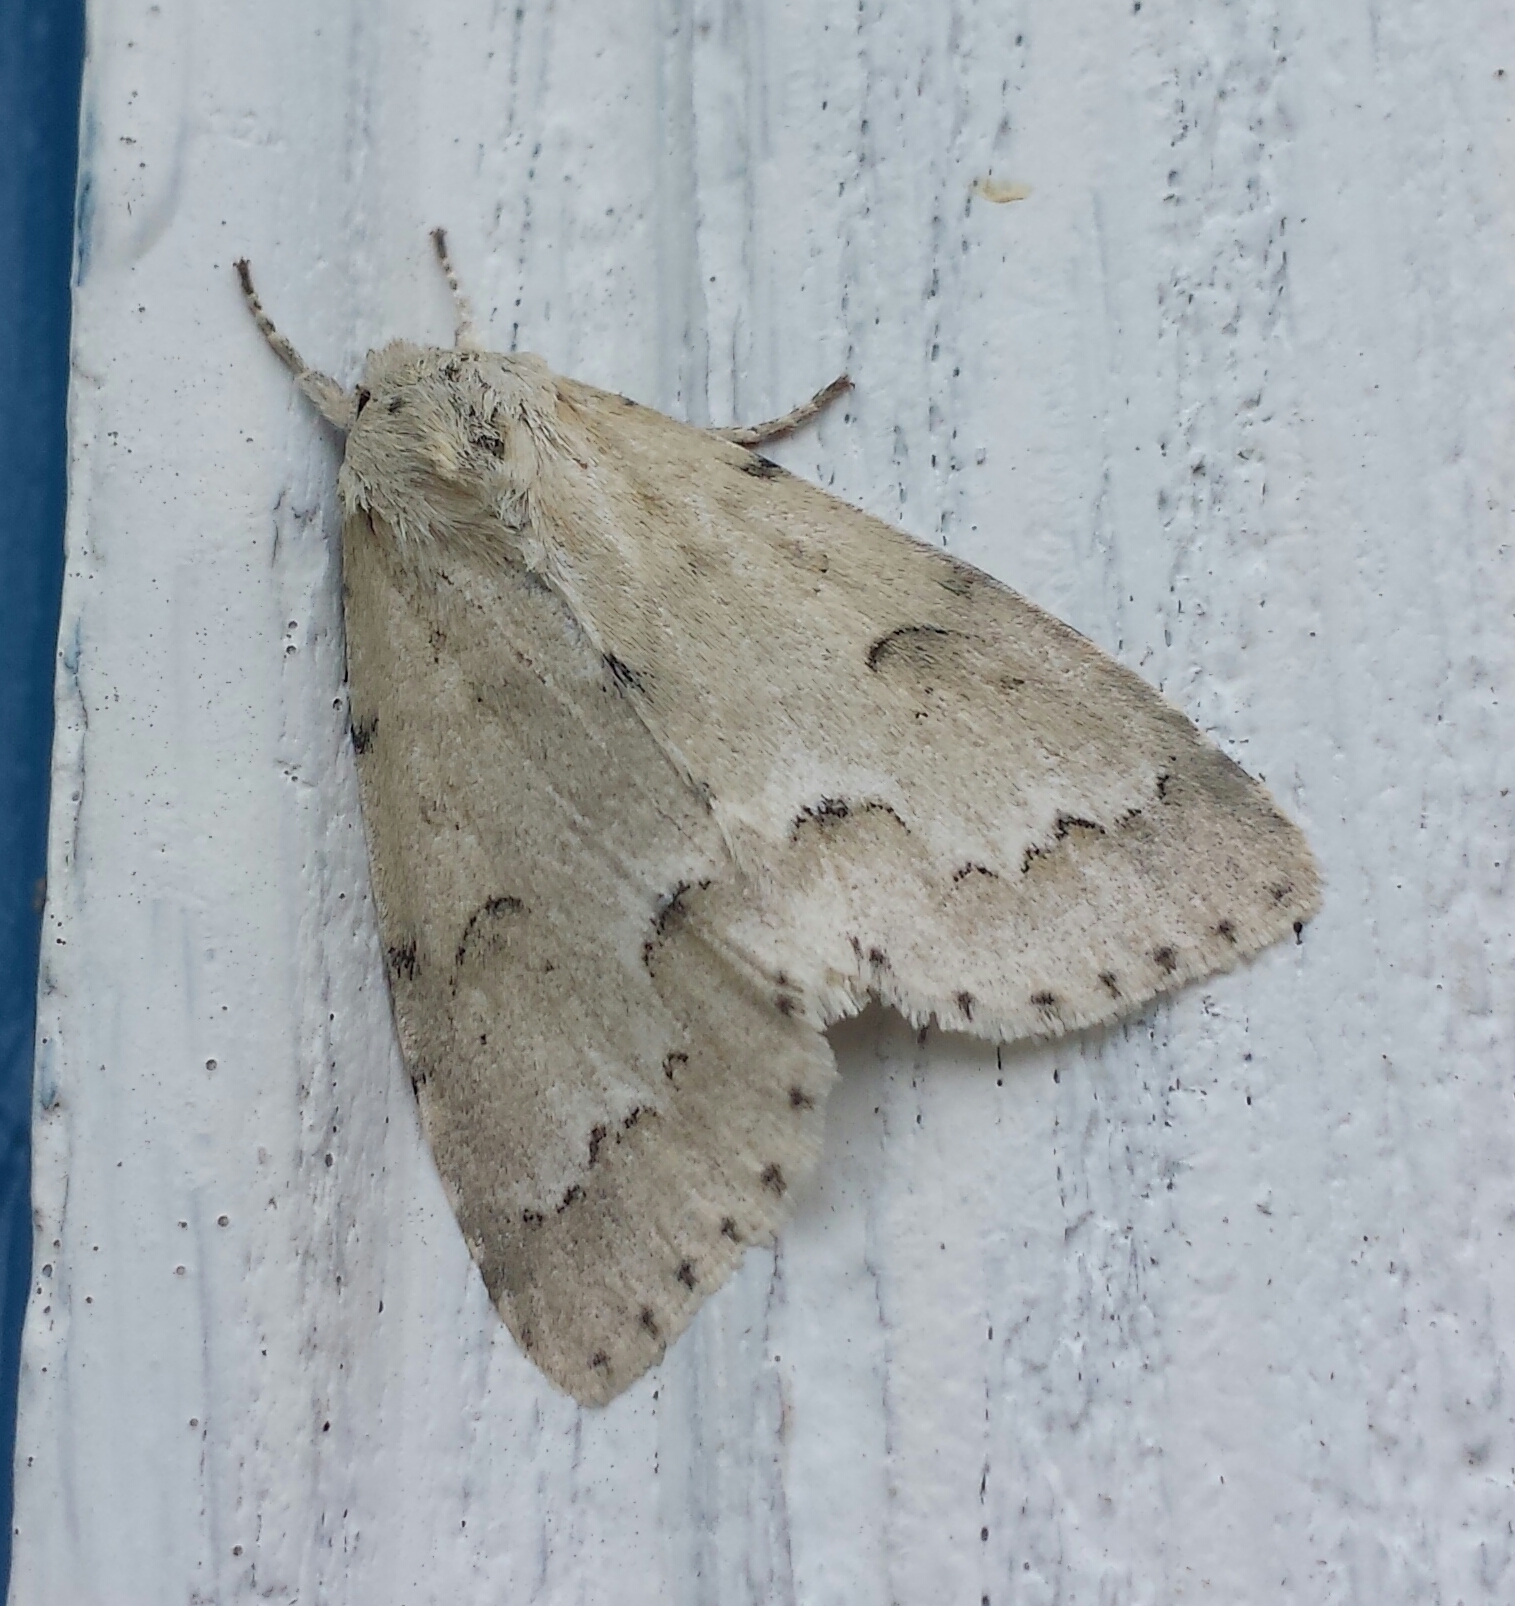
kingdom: Animalia
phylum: Arthropoda
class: Insecta
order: Lepidoptera
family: Noctuidae
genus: Acronicta
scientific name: Acronicta innotata
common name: Unmarked dagger
